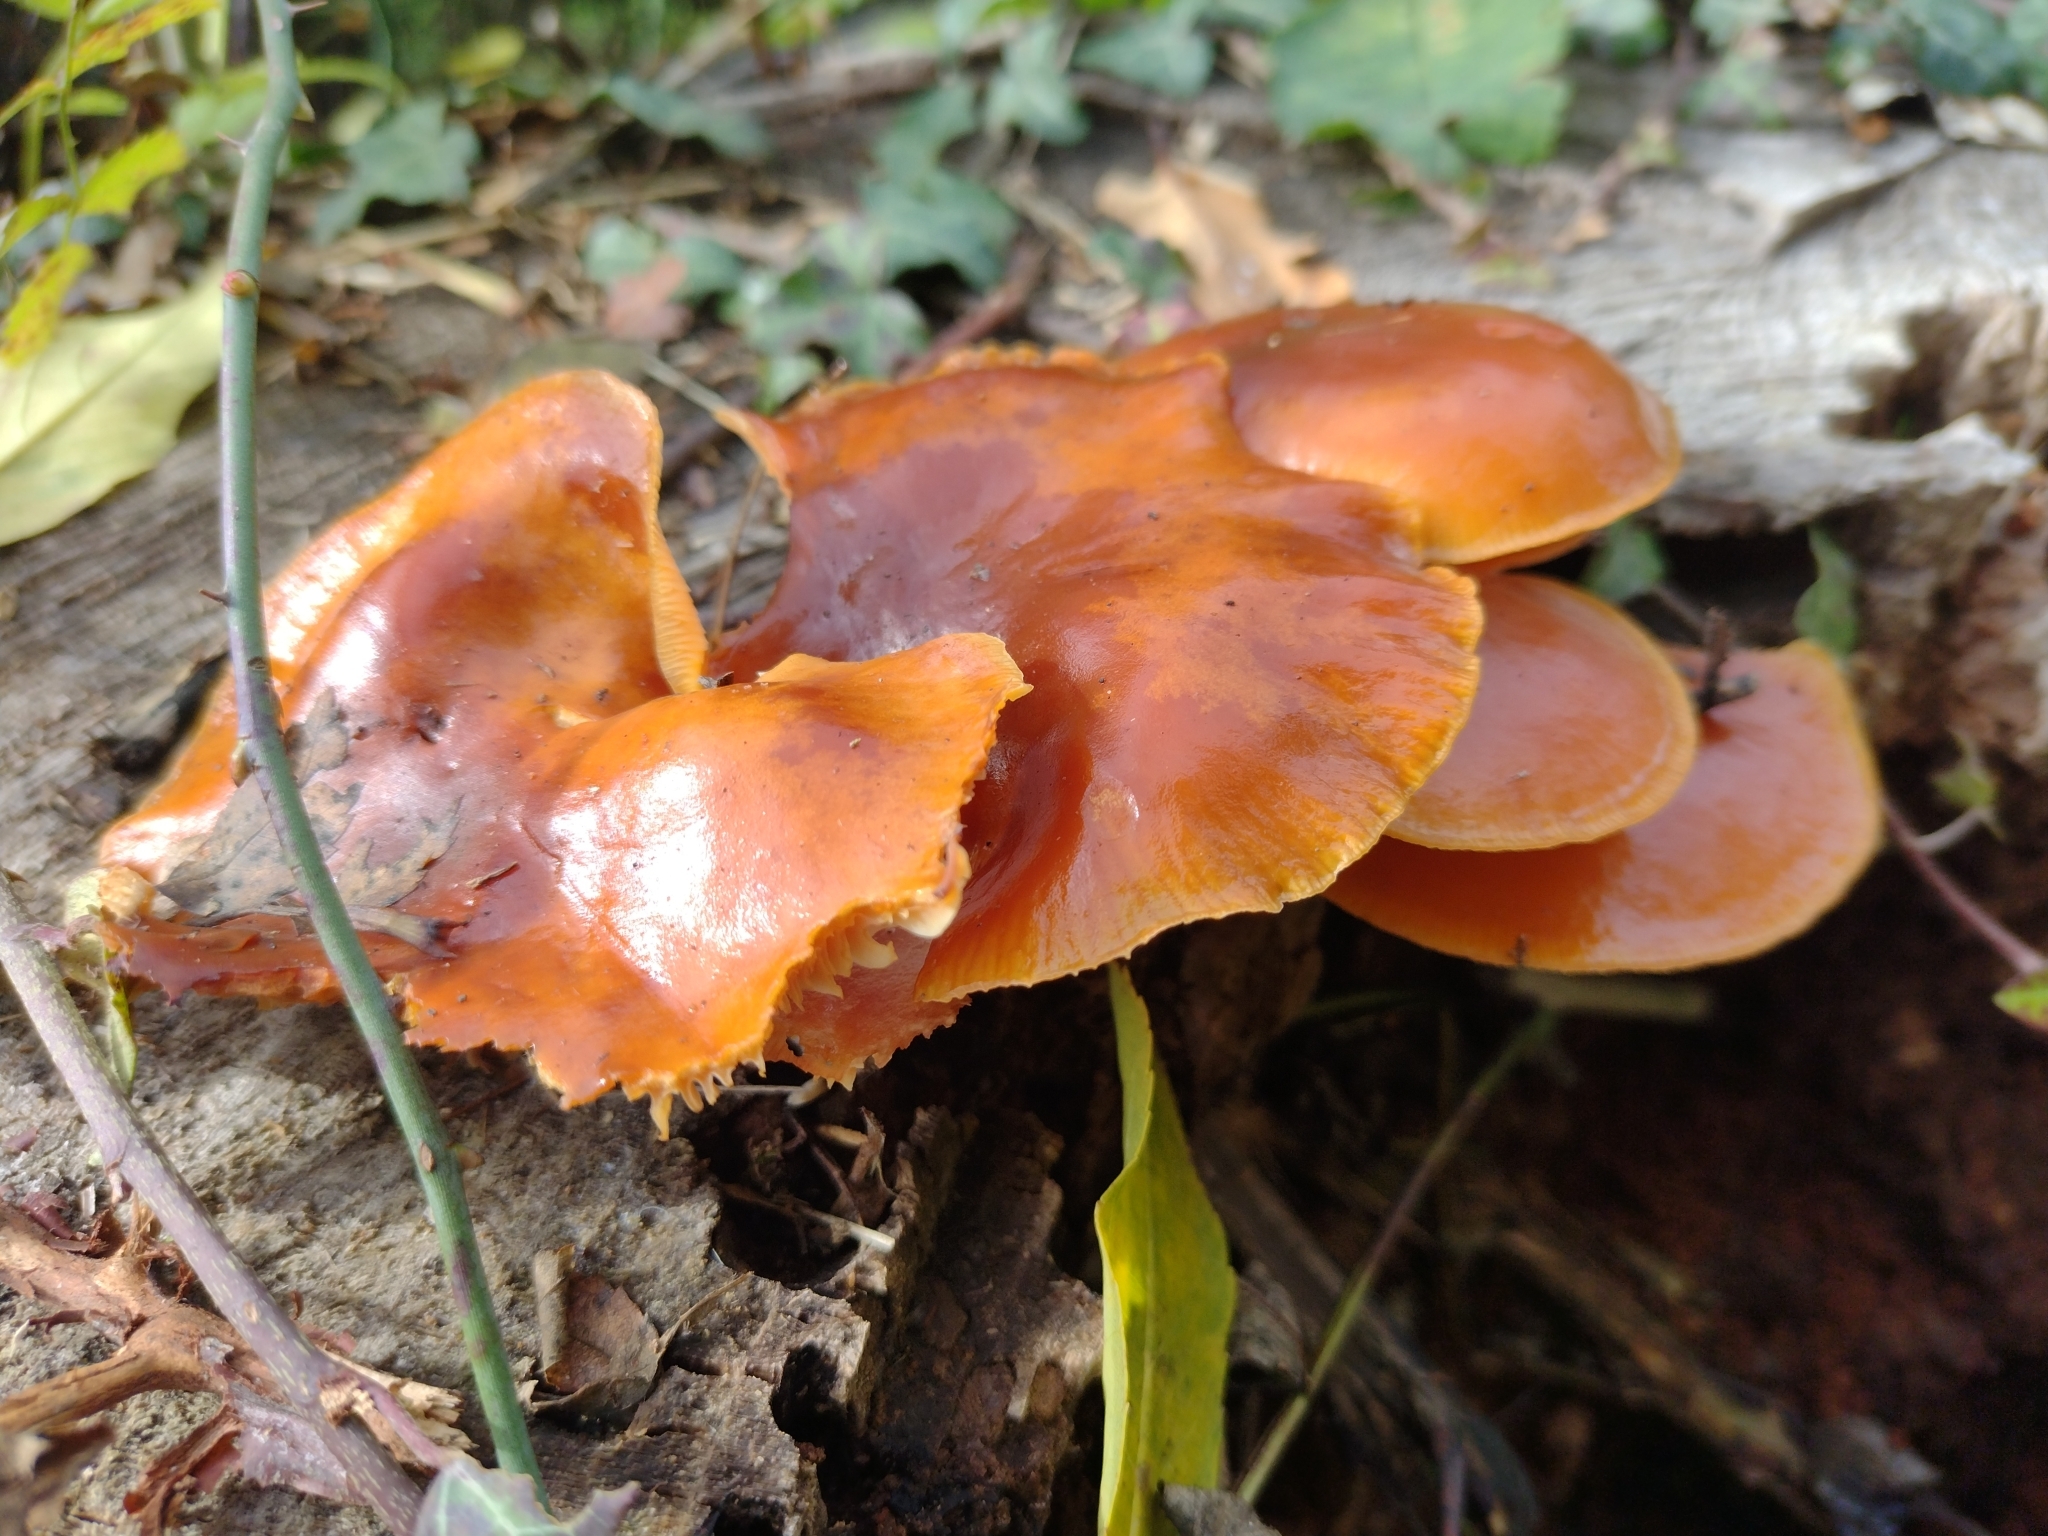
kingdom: Fungi
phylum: Basidiomycota
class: Agaricomycetes
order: Agaricales
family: Physalacriaceae
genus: Flammulina
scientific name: Flammulina
